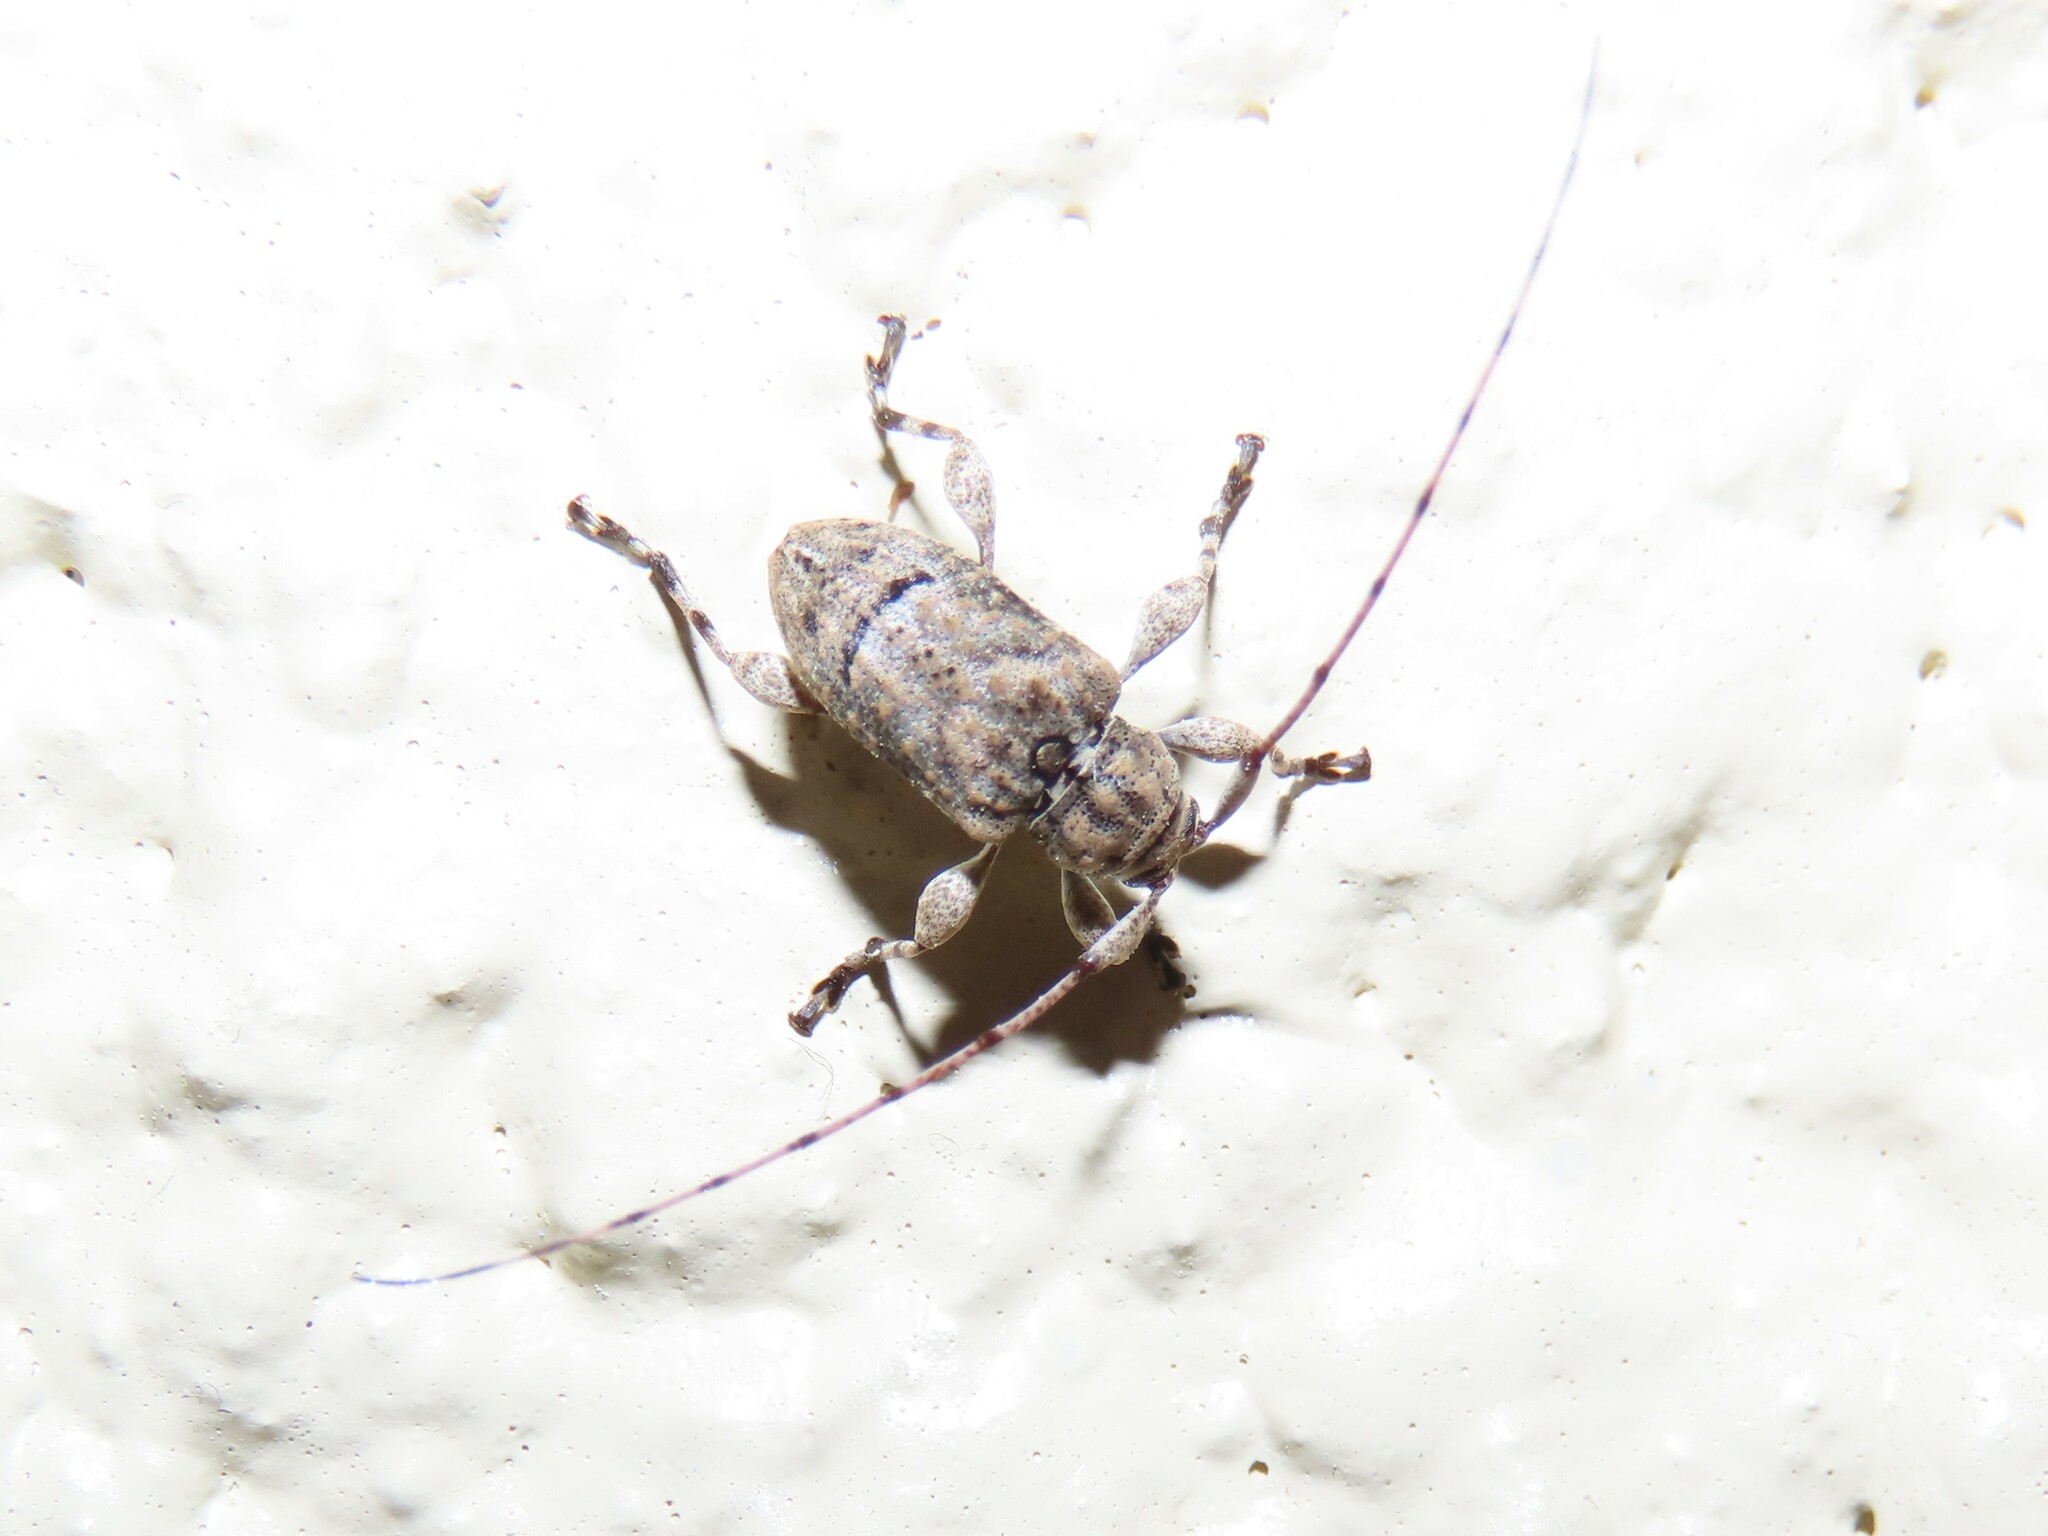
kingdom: Animalia
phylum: Arthropoda
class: Insecta
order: Coleoptera
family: Cerambycidae
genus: Leptostylopsis
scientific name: Leptostylopsis terraecolor
